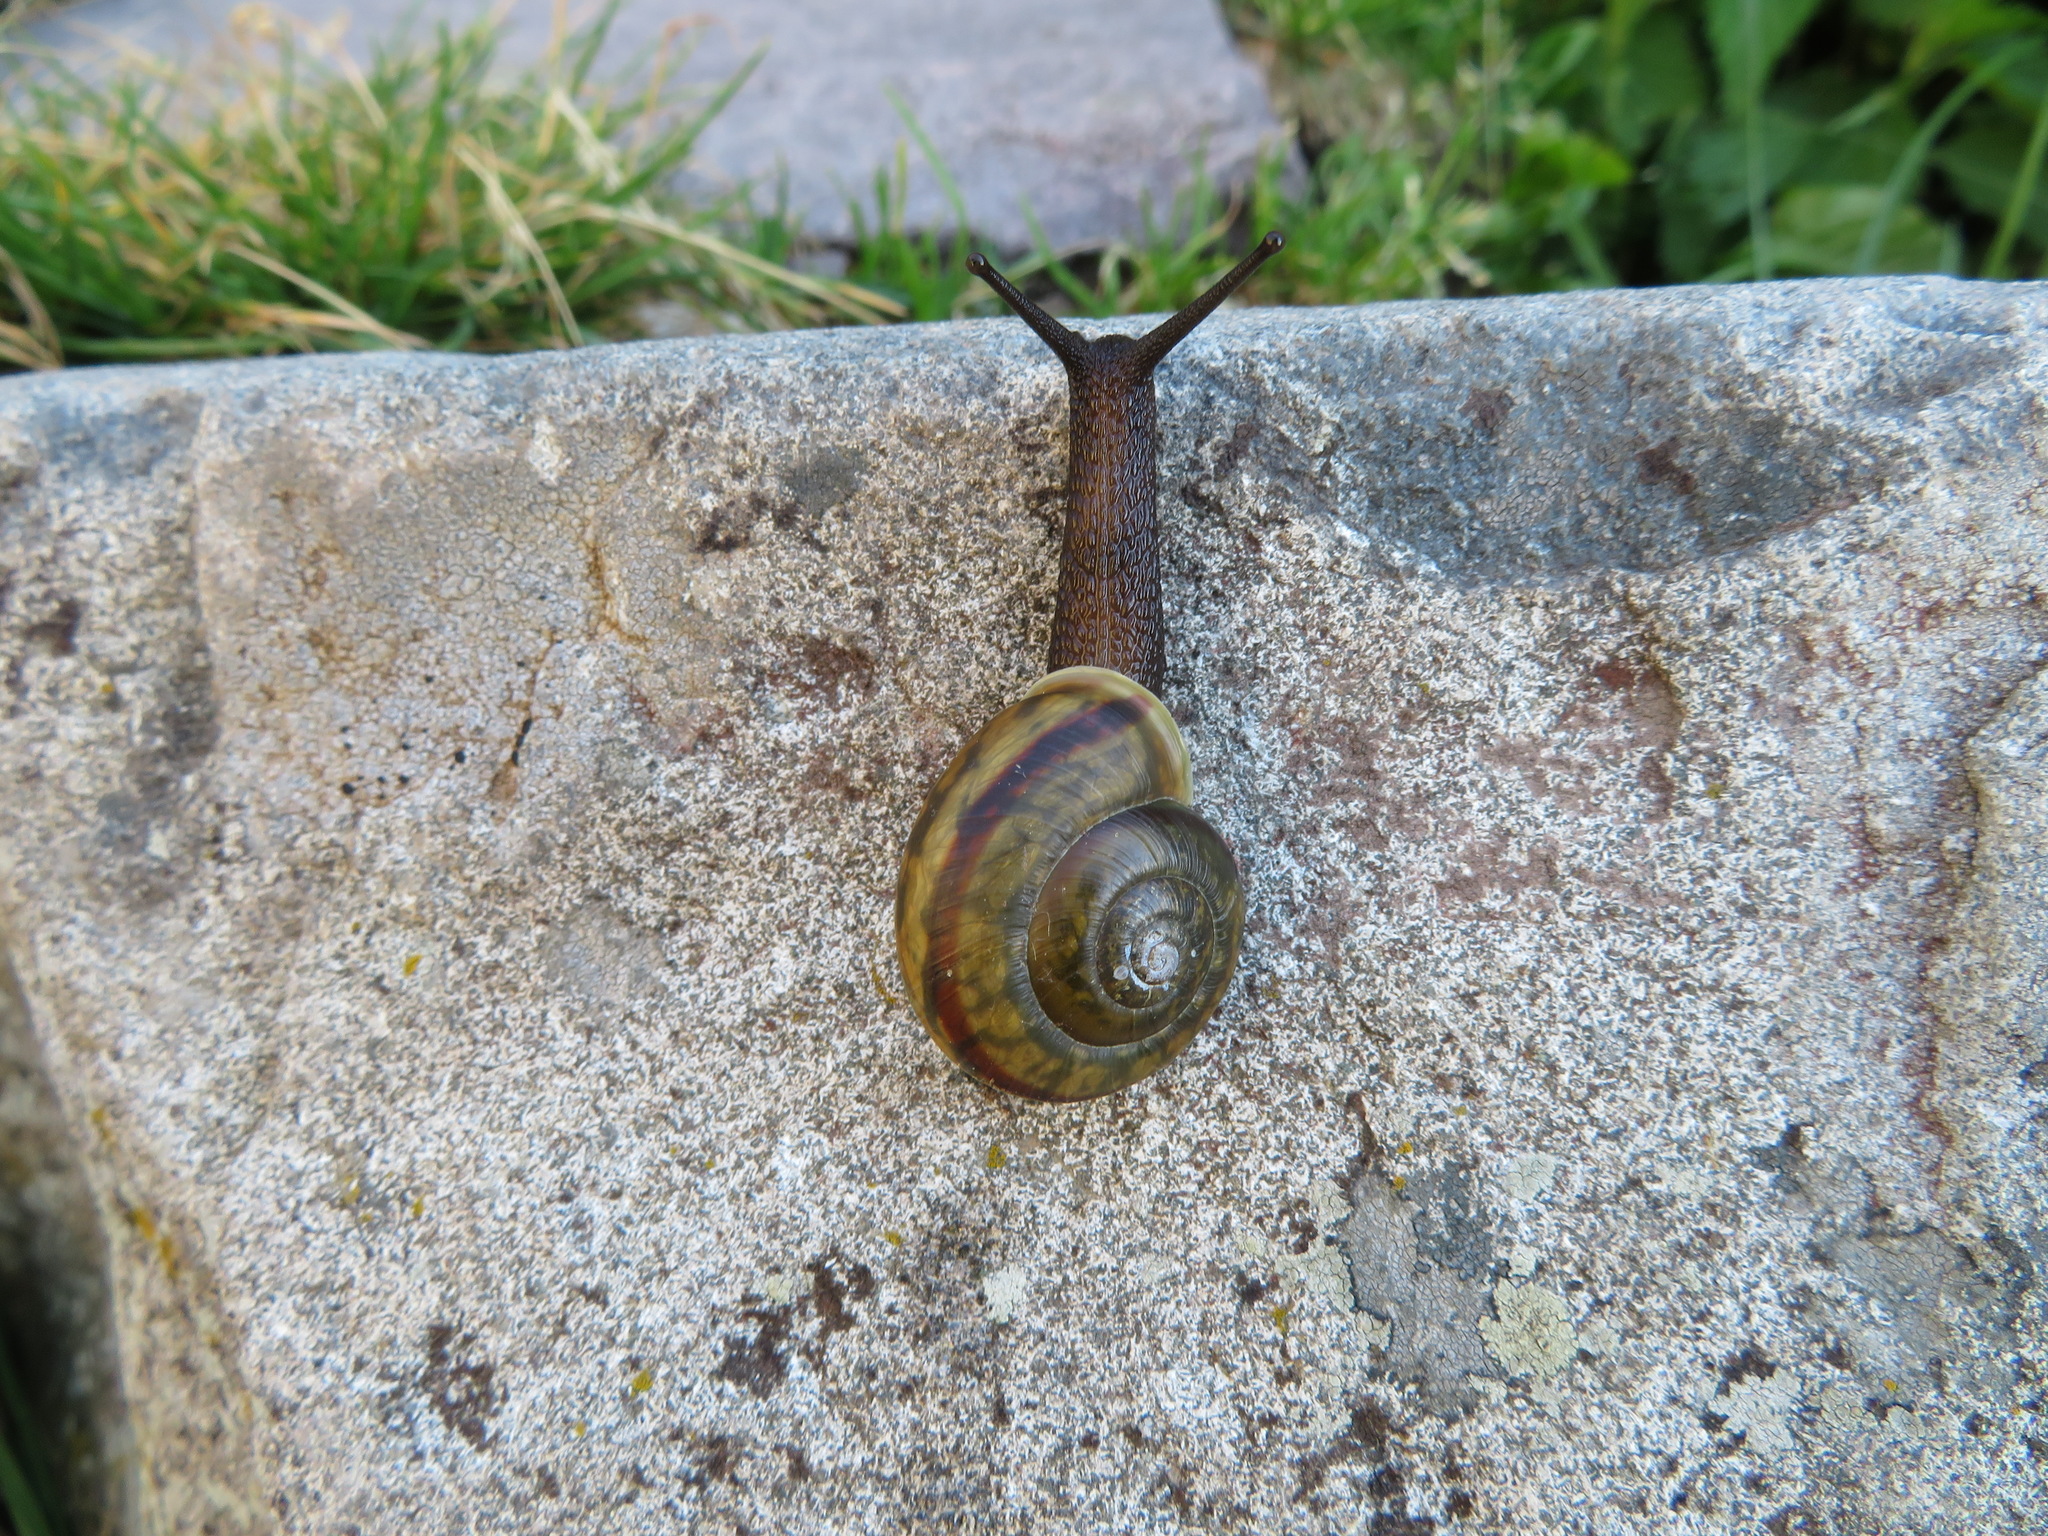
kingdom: Animalia
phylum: Mollusca
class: Gastropoda
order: Stylommatophora
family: Helicidae
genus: Chilostoma
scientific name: Chilostoma adelozona
